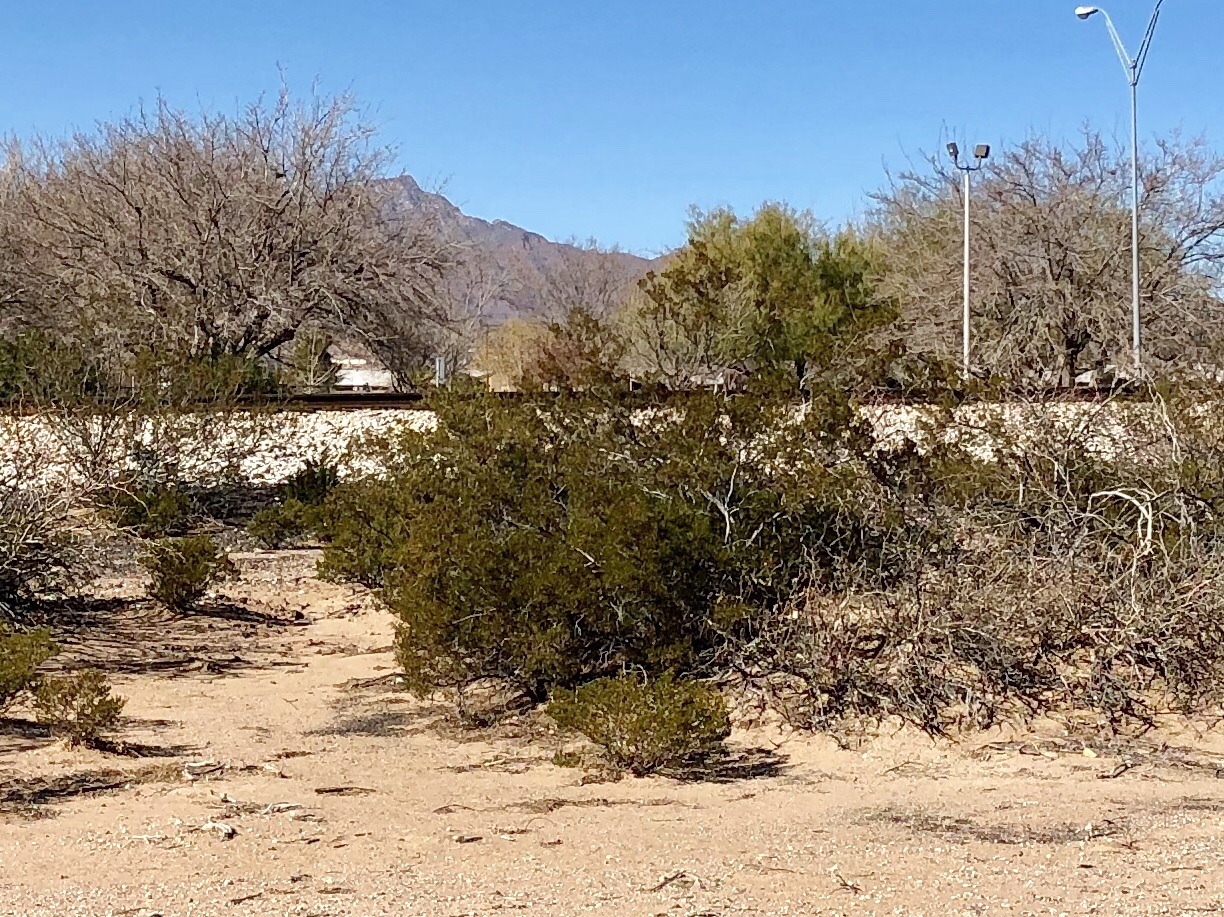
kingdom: Plantae
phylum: Tracheophyta
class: Magnoliopsida
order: Zygophyllales
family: Zygophyllaceae
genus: Larrea
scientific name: Larrea tridentata
